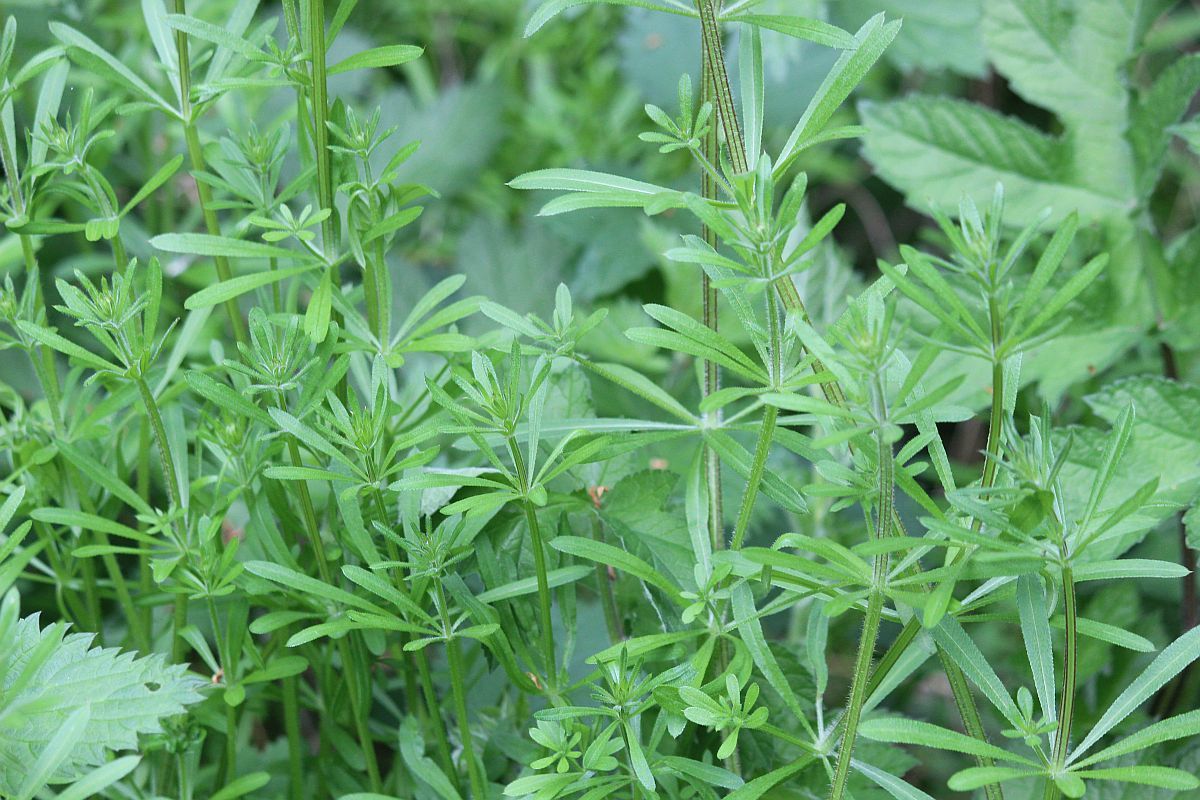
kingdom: Plantae
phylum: Tracheophyta
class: Magnoliopsida
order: Gentianales
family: Rubiaceae
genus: Galium
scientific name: Galium aparine
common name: Cleavers
